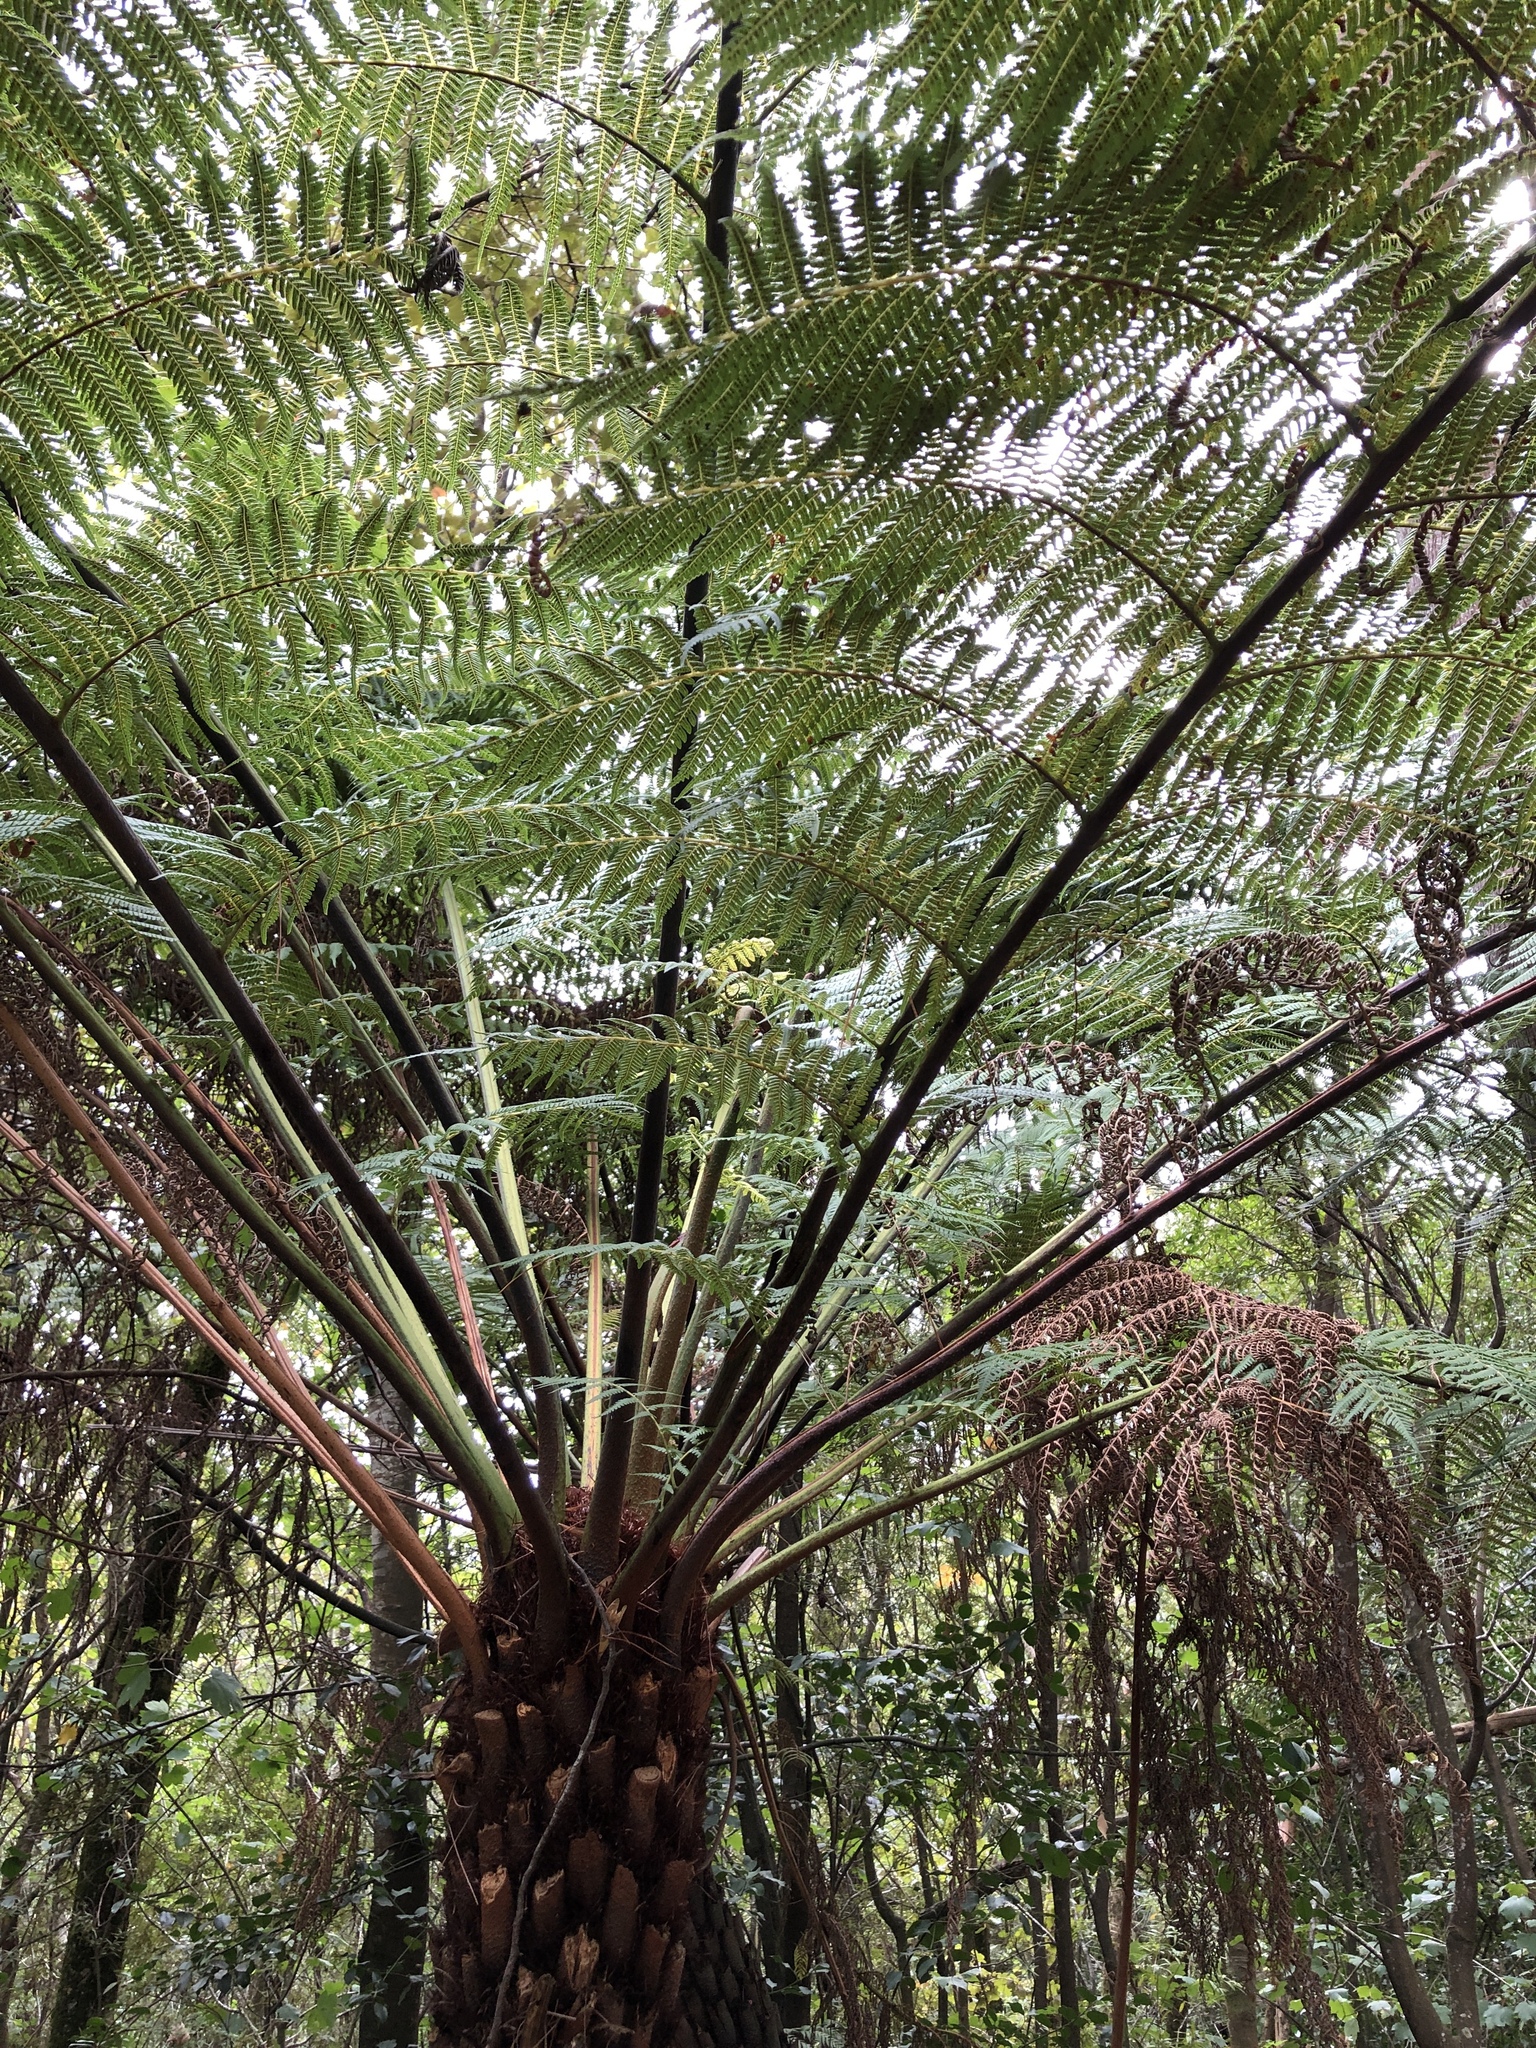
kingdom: Plantae
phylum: Tracheophyta
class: Polypodiopsida
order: Cyatheales
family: Cyatheaceae
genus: Alsophila
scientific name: Alsophila australis
